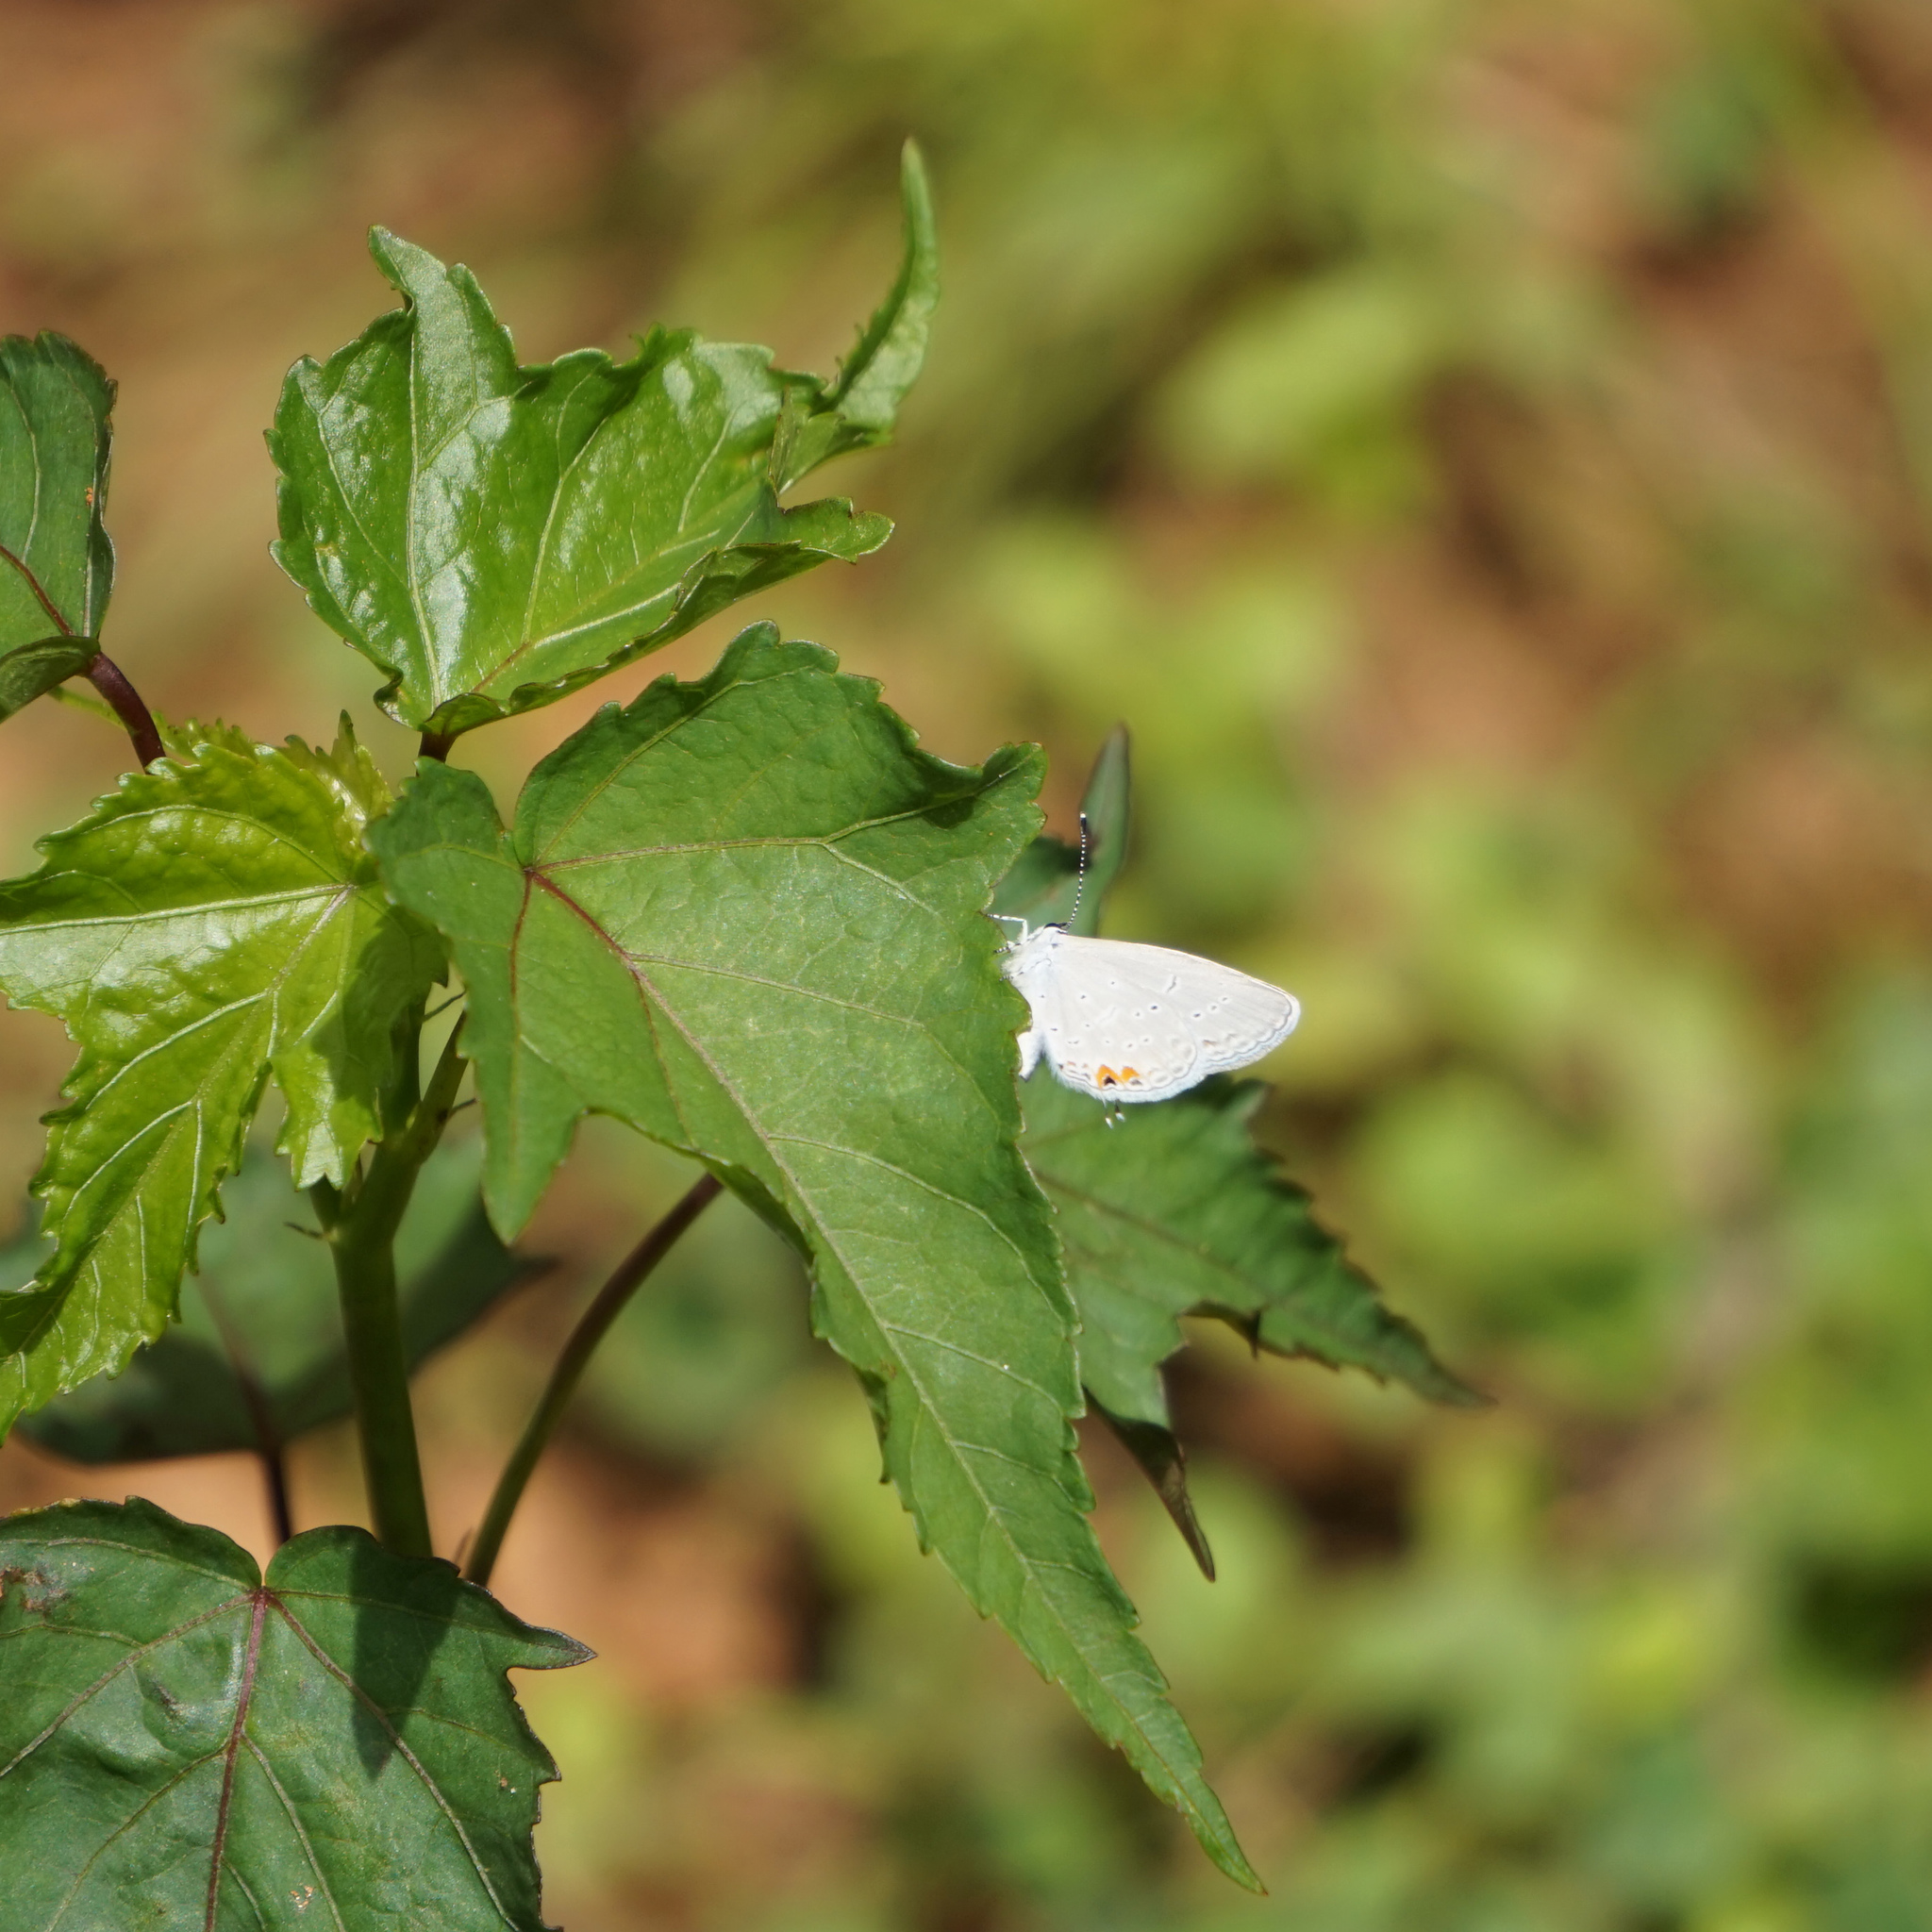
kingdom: Animalia
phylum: Arthropoda
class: Insecta
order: Lepidoptera
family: Lycaenidae
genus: Elkalyce
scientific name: Elkalyce comyntas
